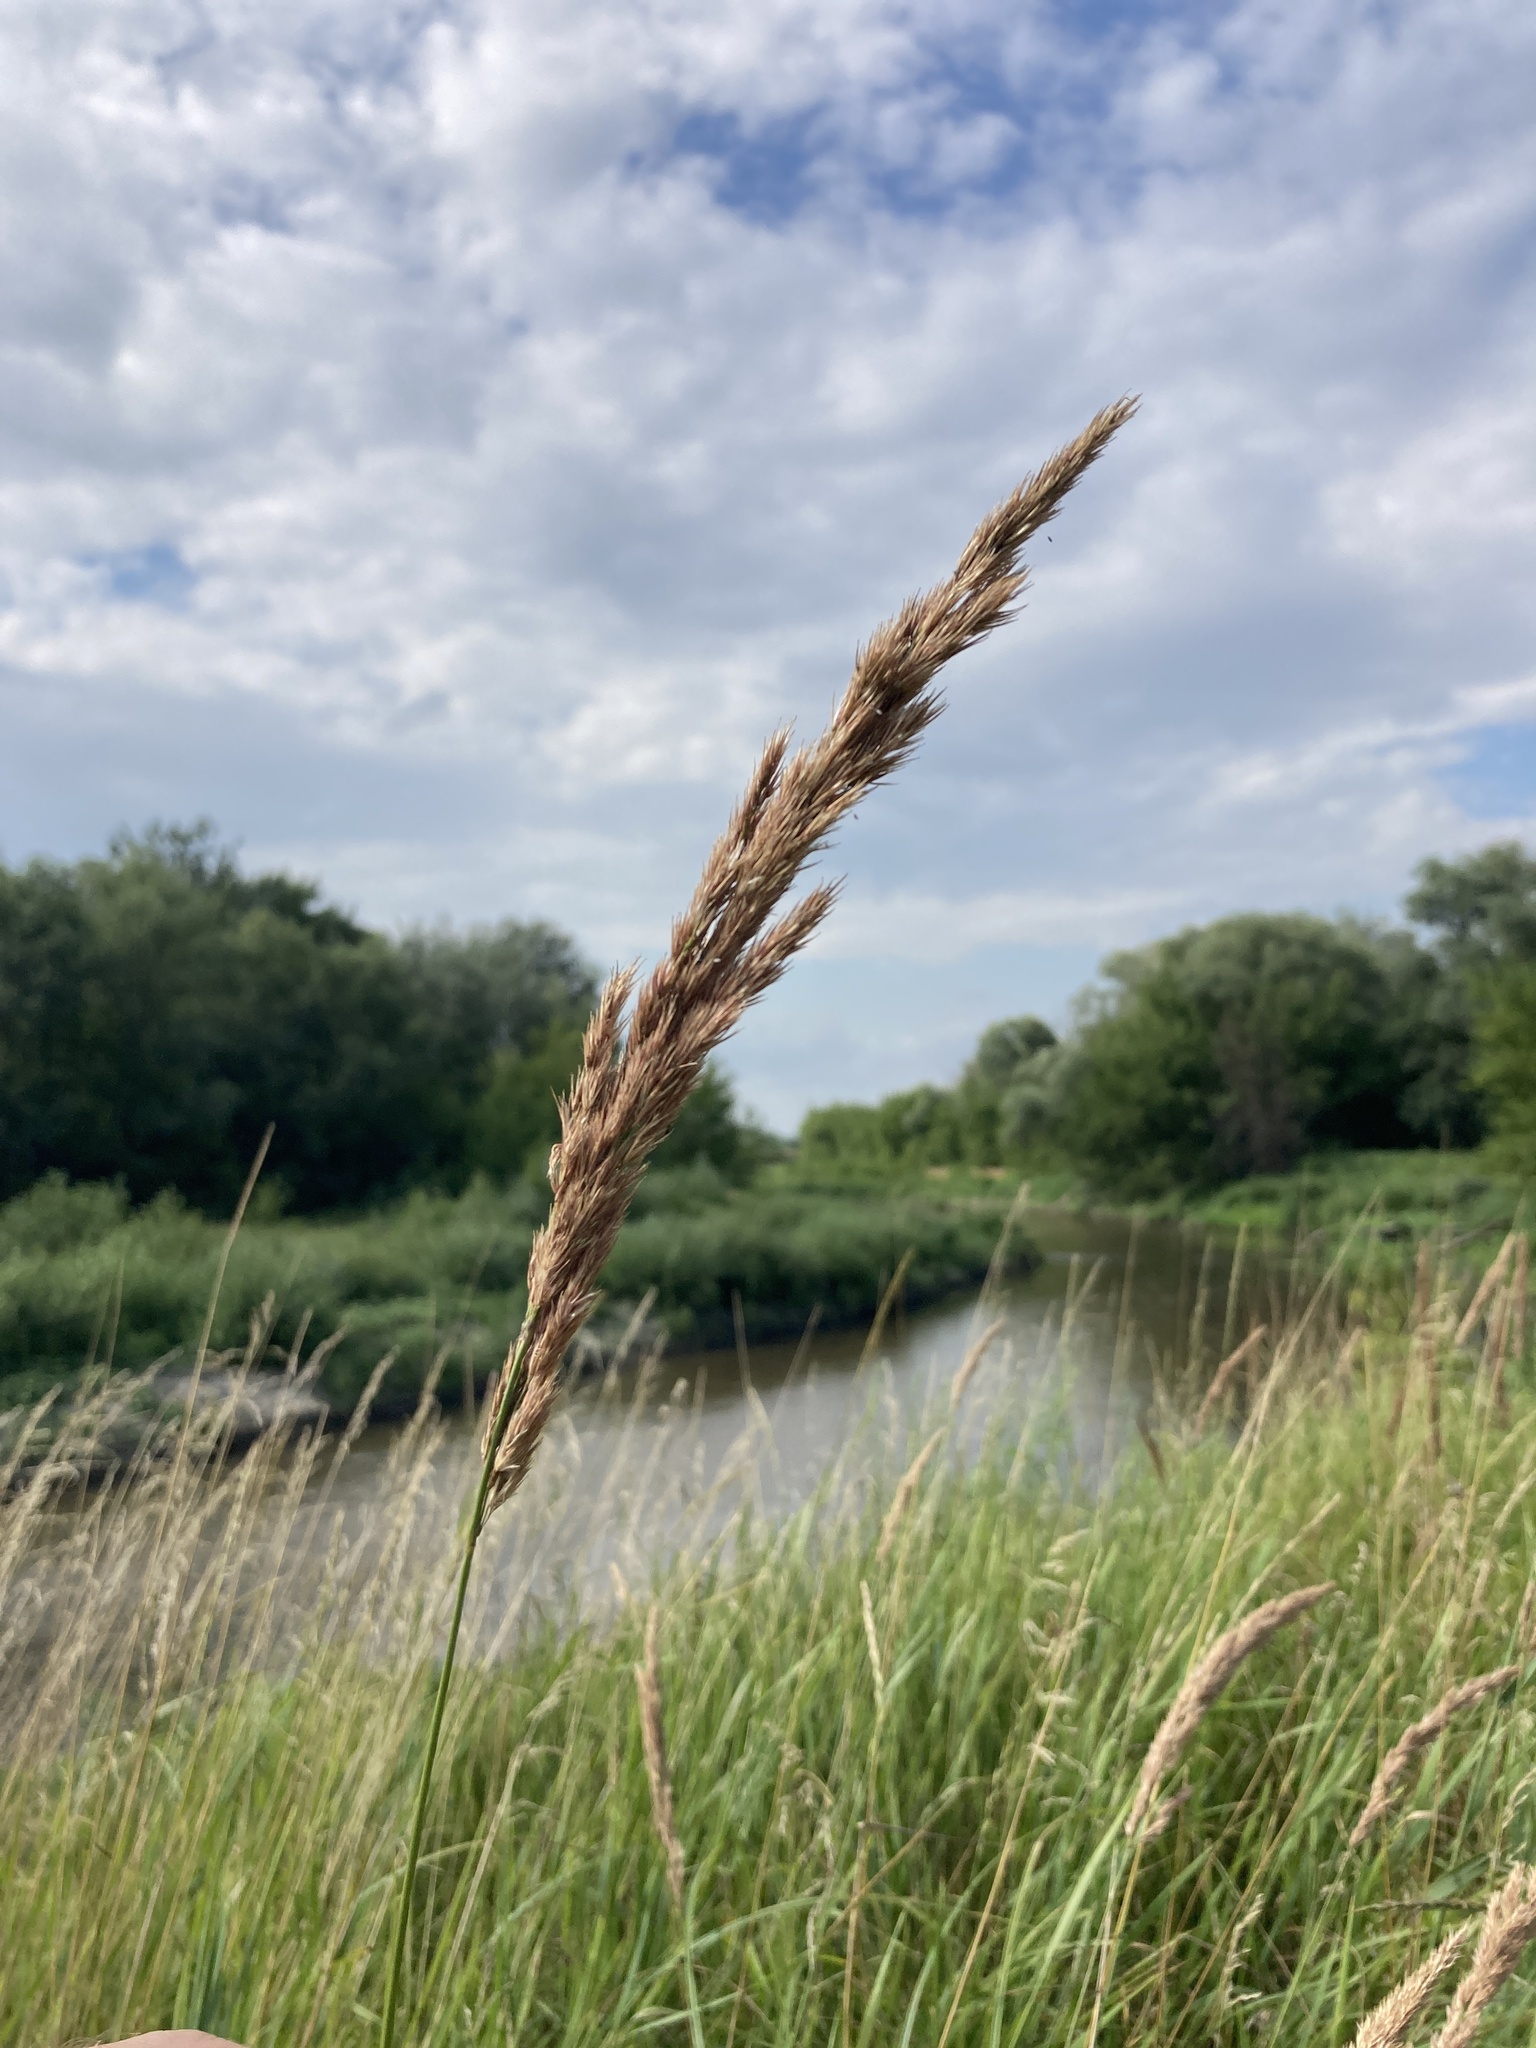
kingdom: Plantae
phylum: Tracheophyta
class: Liliopsida
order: Poales
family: Poaceae
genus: Calamagrostis
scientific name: Calamagrostis epigejos
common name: Wood small-reed
